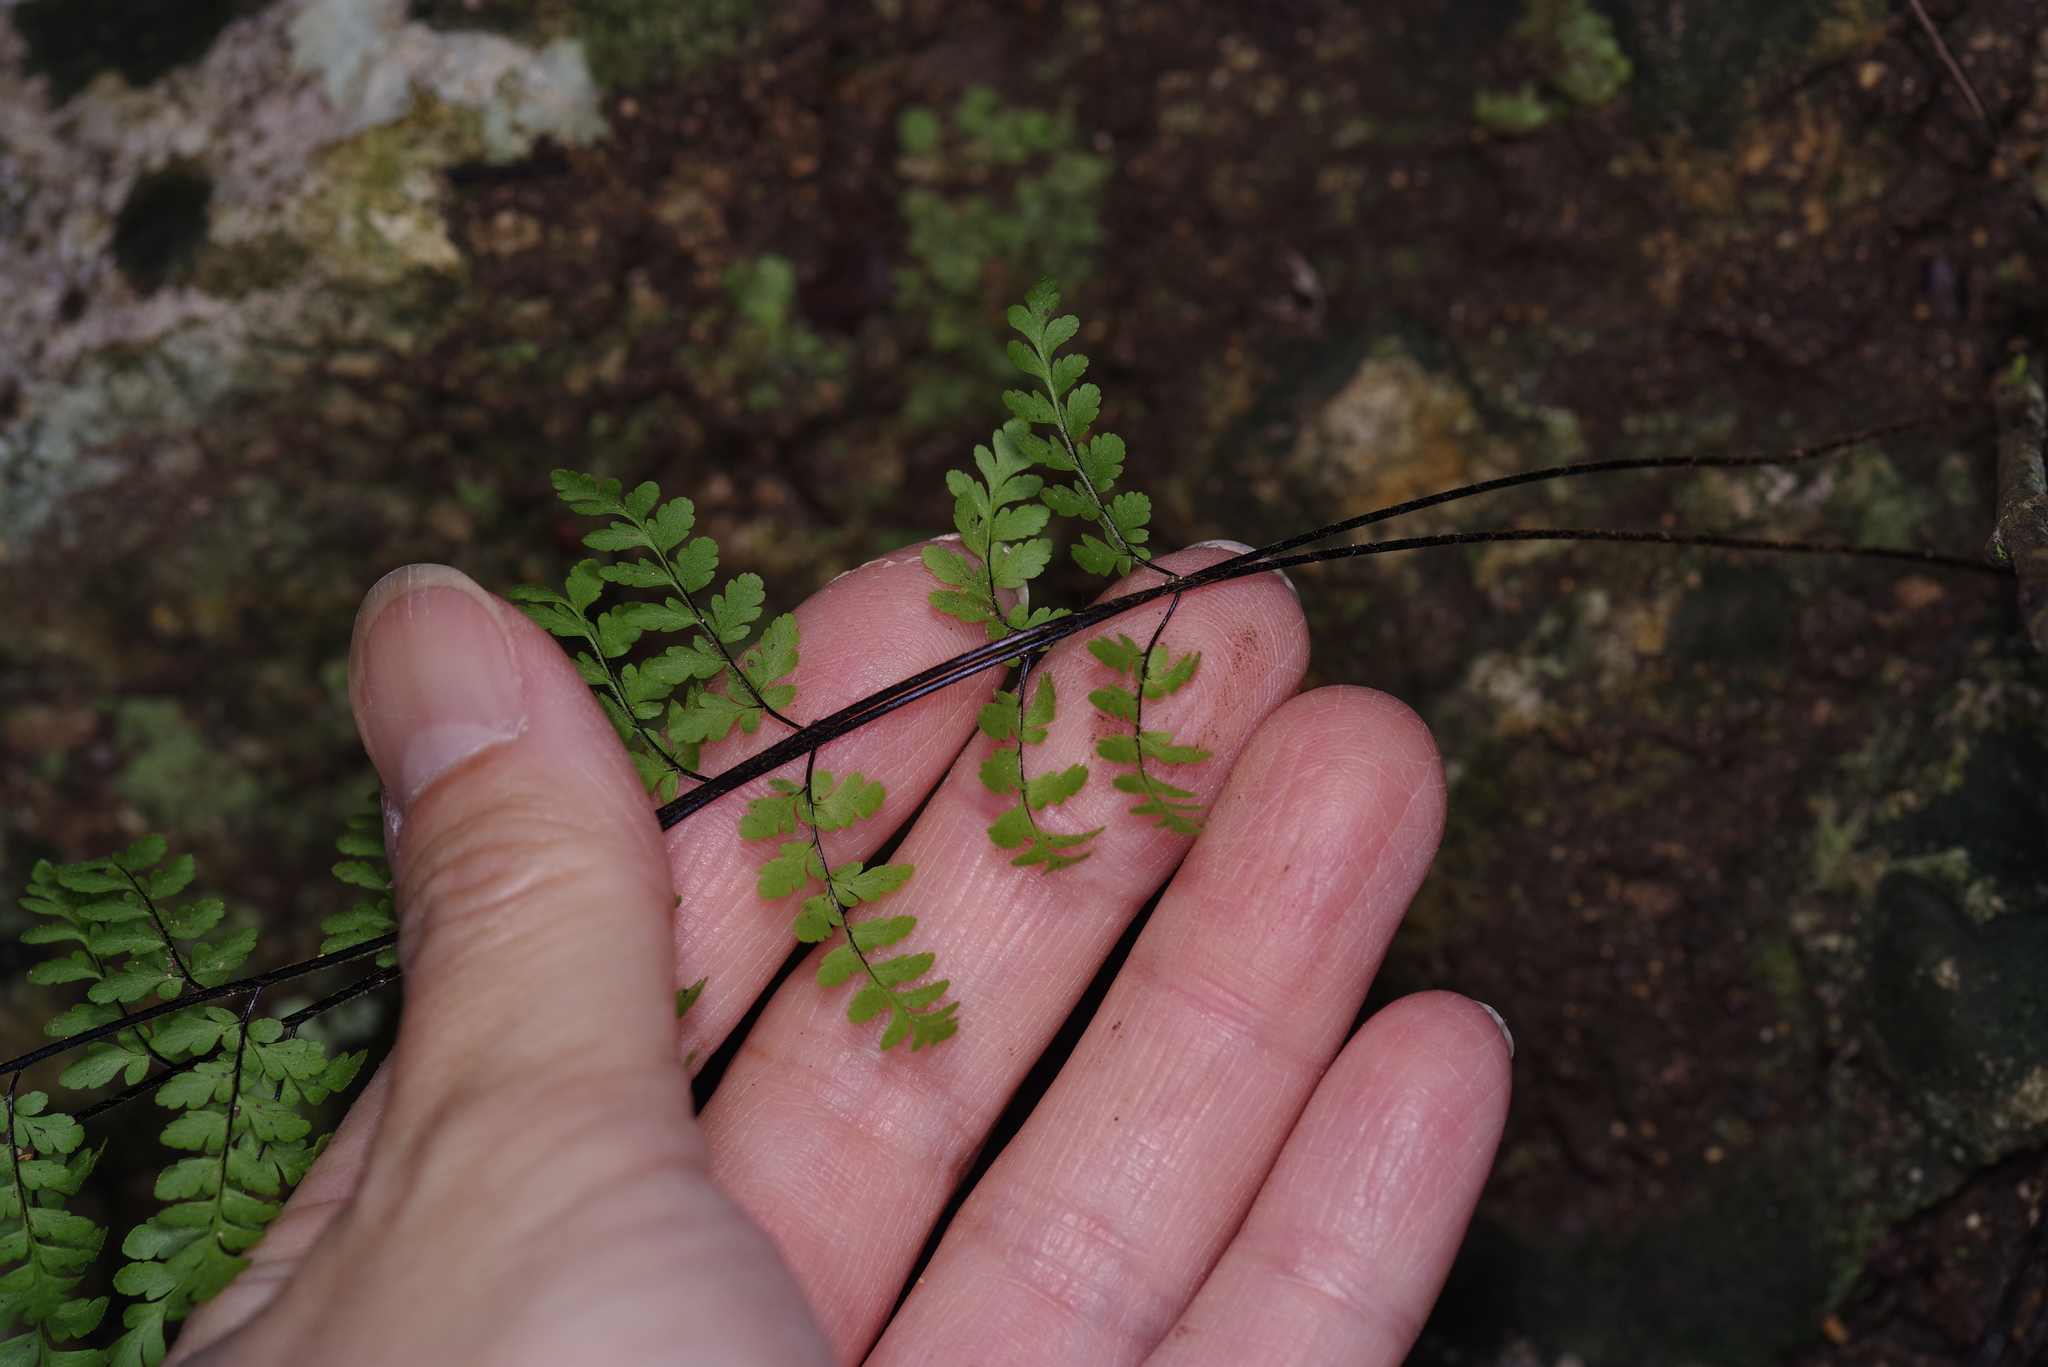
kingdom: Plantae
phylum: Tracheophyta
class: Polypodiopsida
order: Polypodiales
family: Pteridaceae
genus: Myriopteris
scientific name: Myriopteris alabamensis
